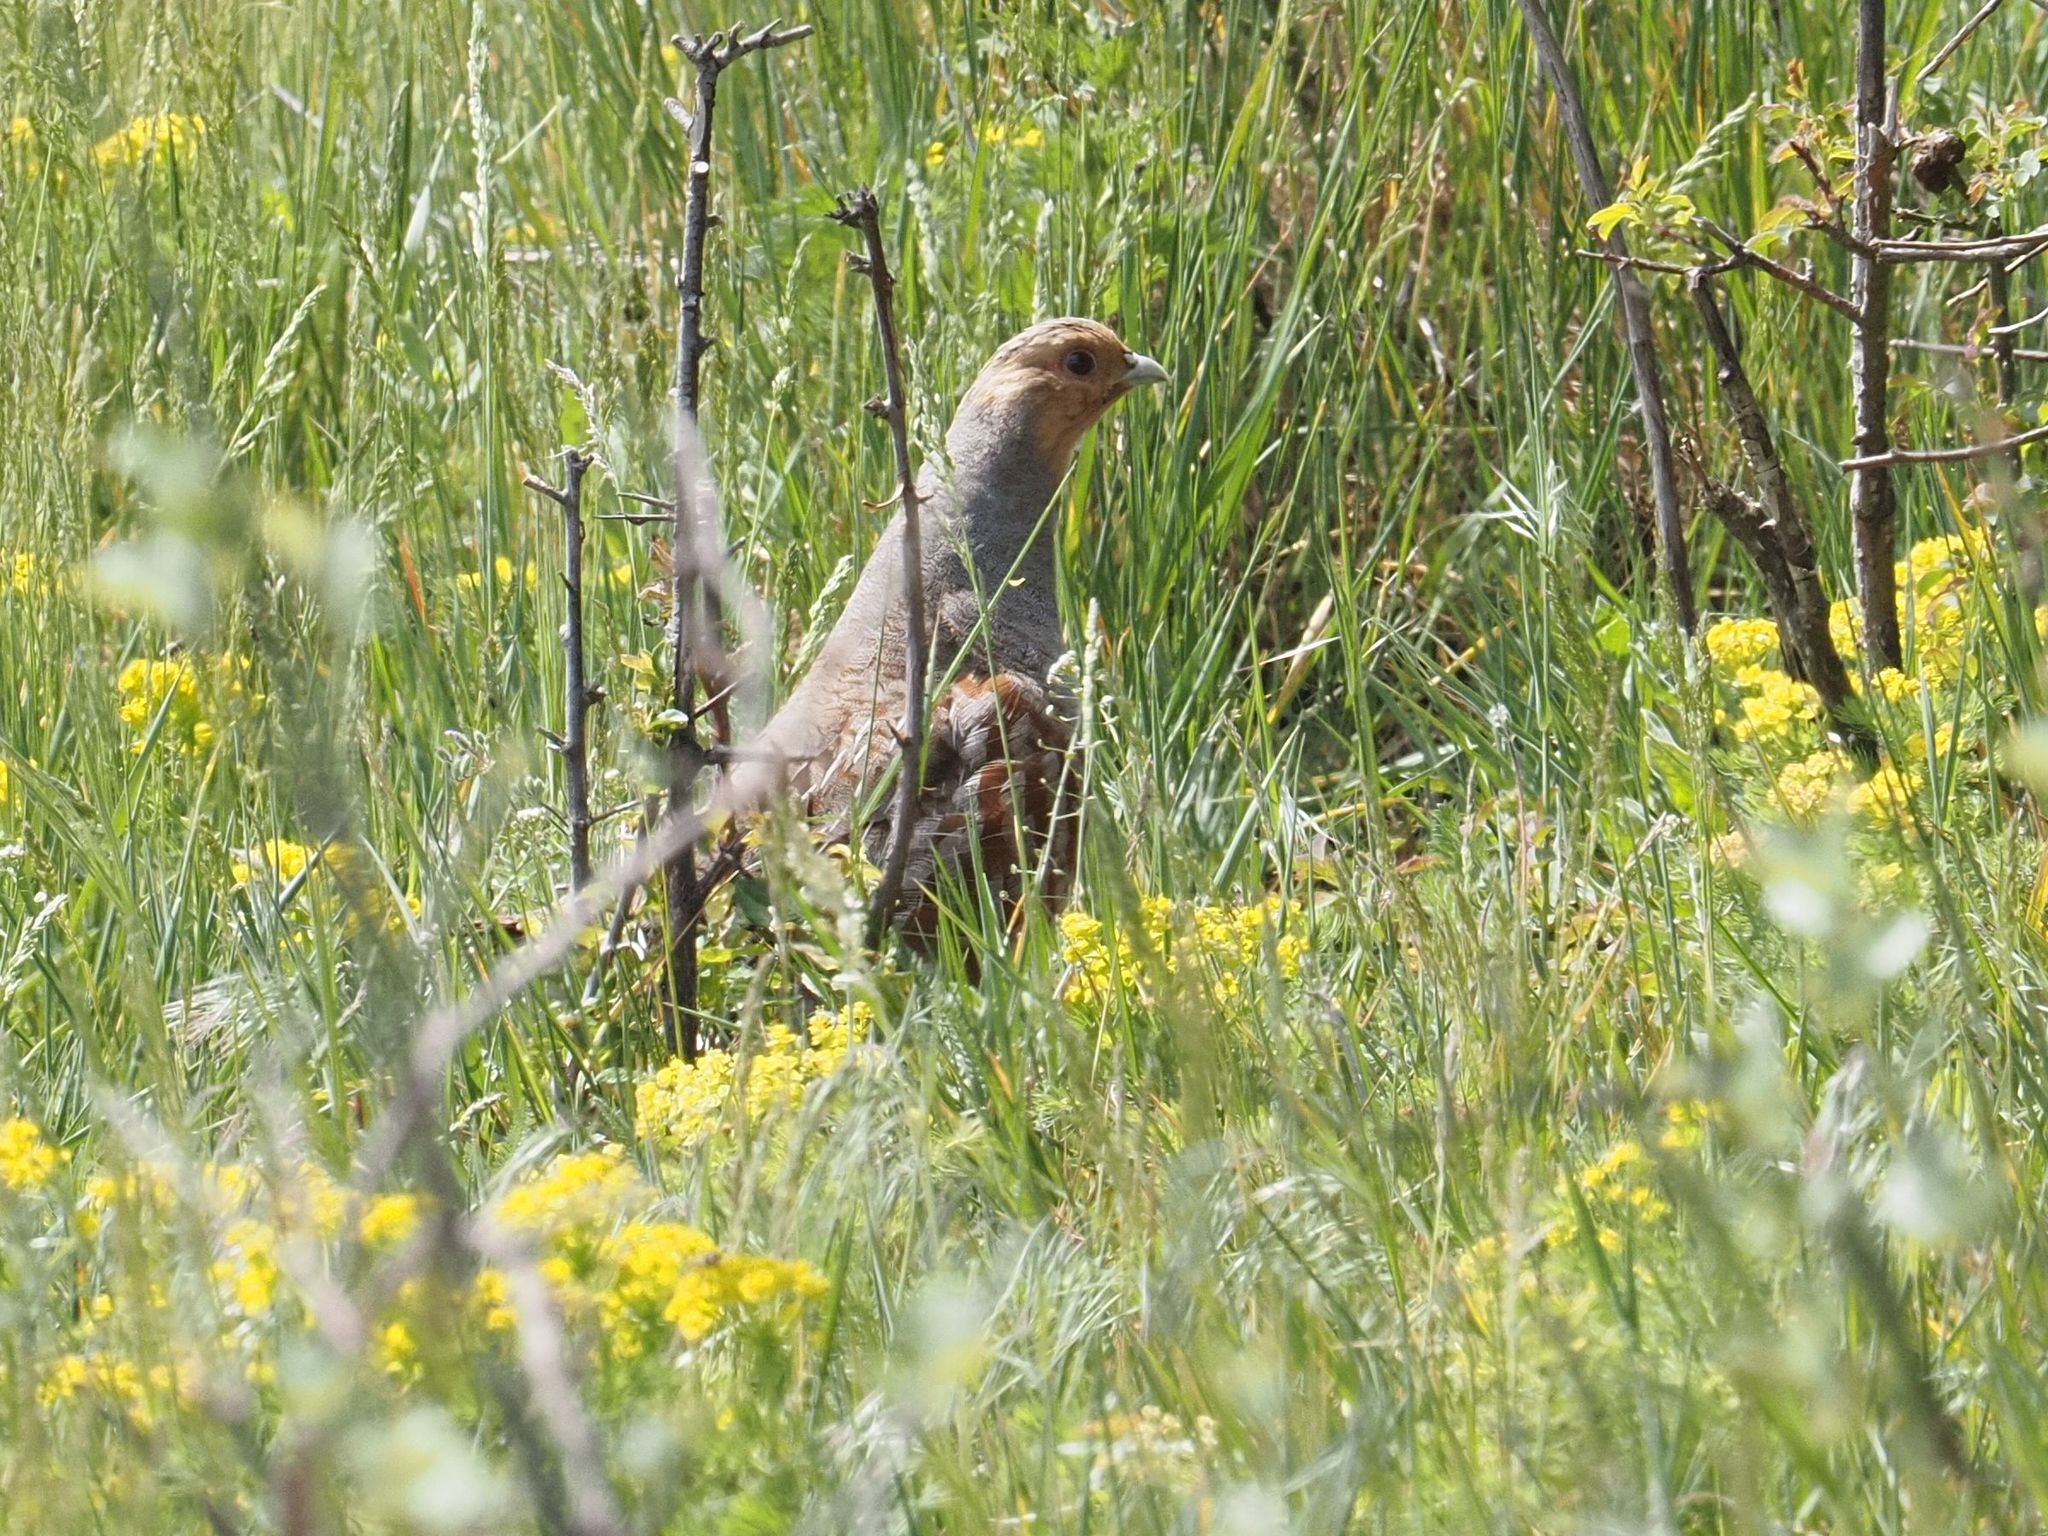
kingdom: Animalia
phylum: Chordata
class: Aves
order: Galliformes
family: Phasianidae
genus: Perdix
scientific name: Perdix perdix
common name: Grey partridge
